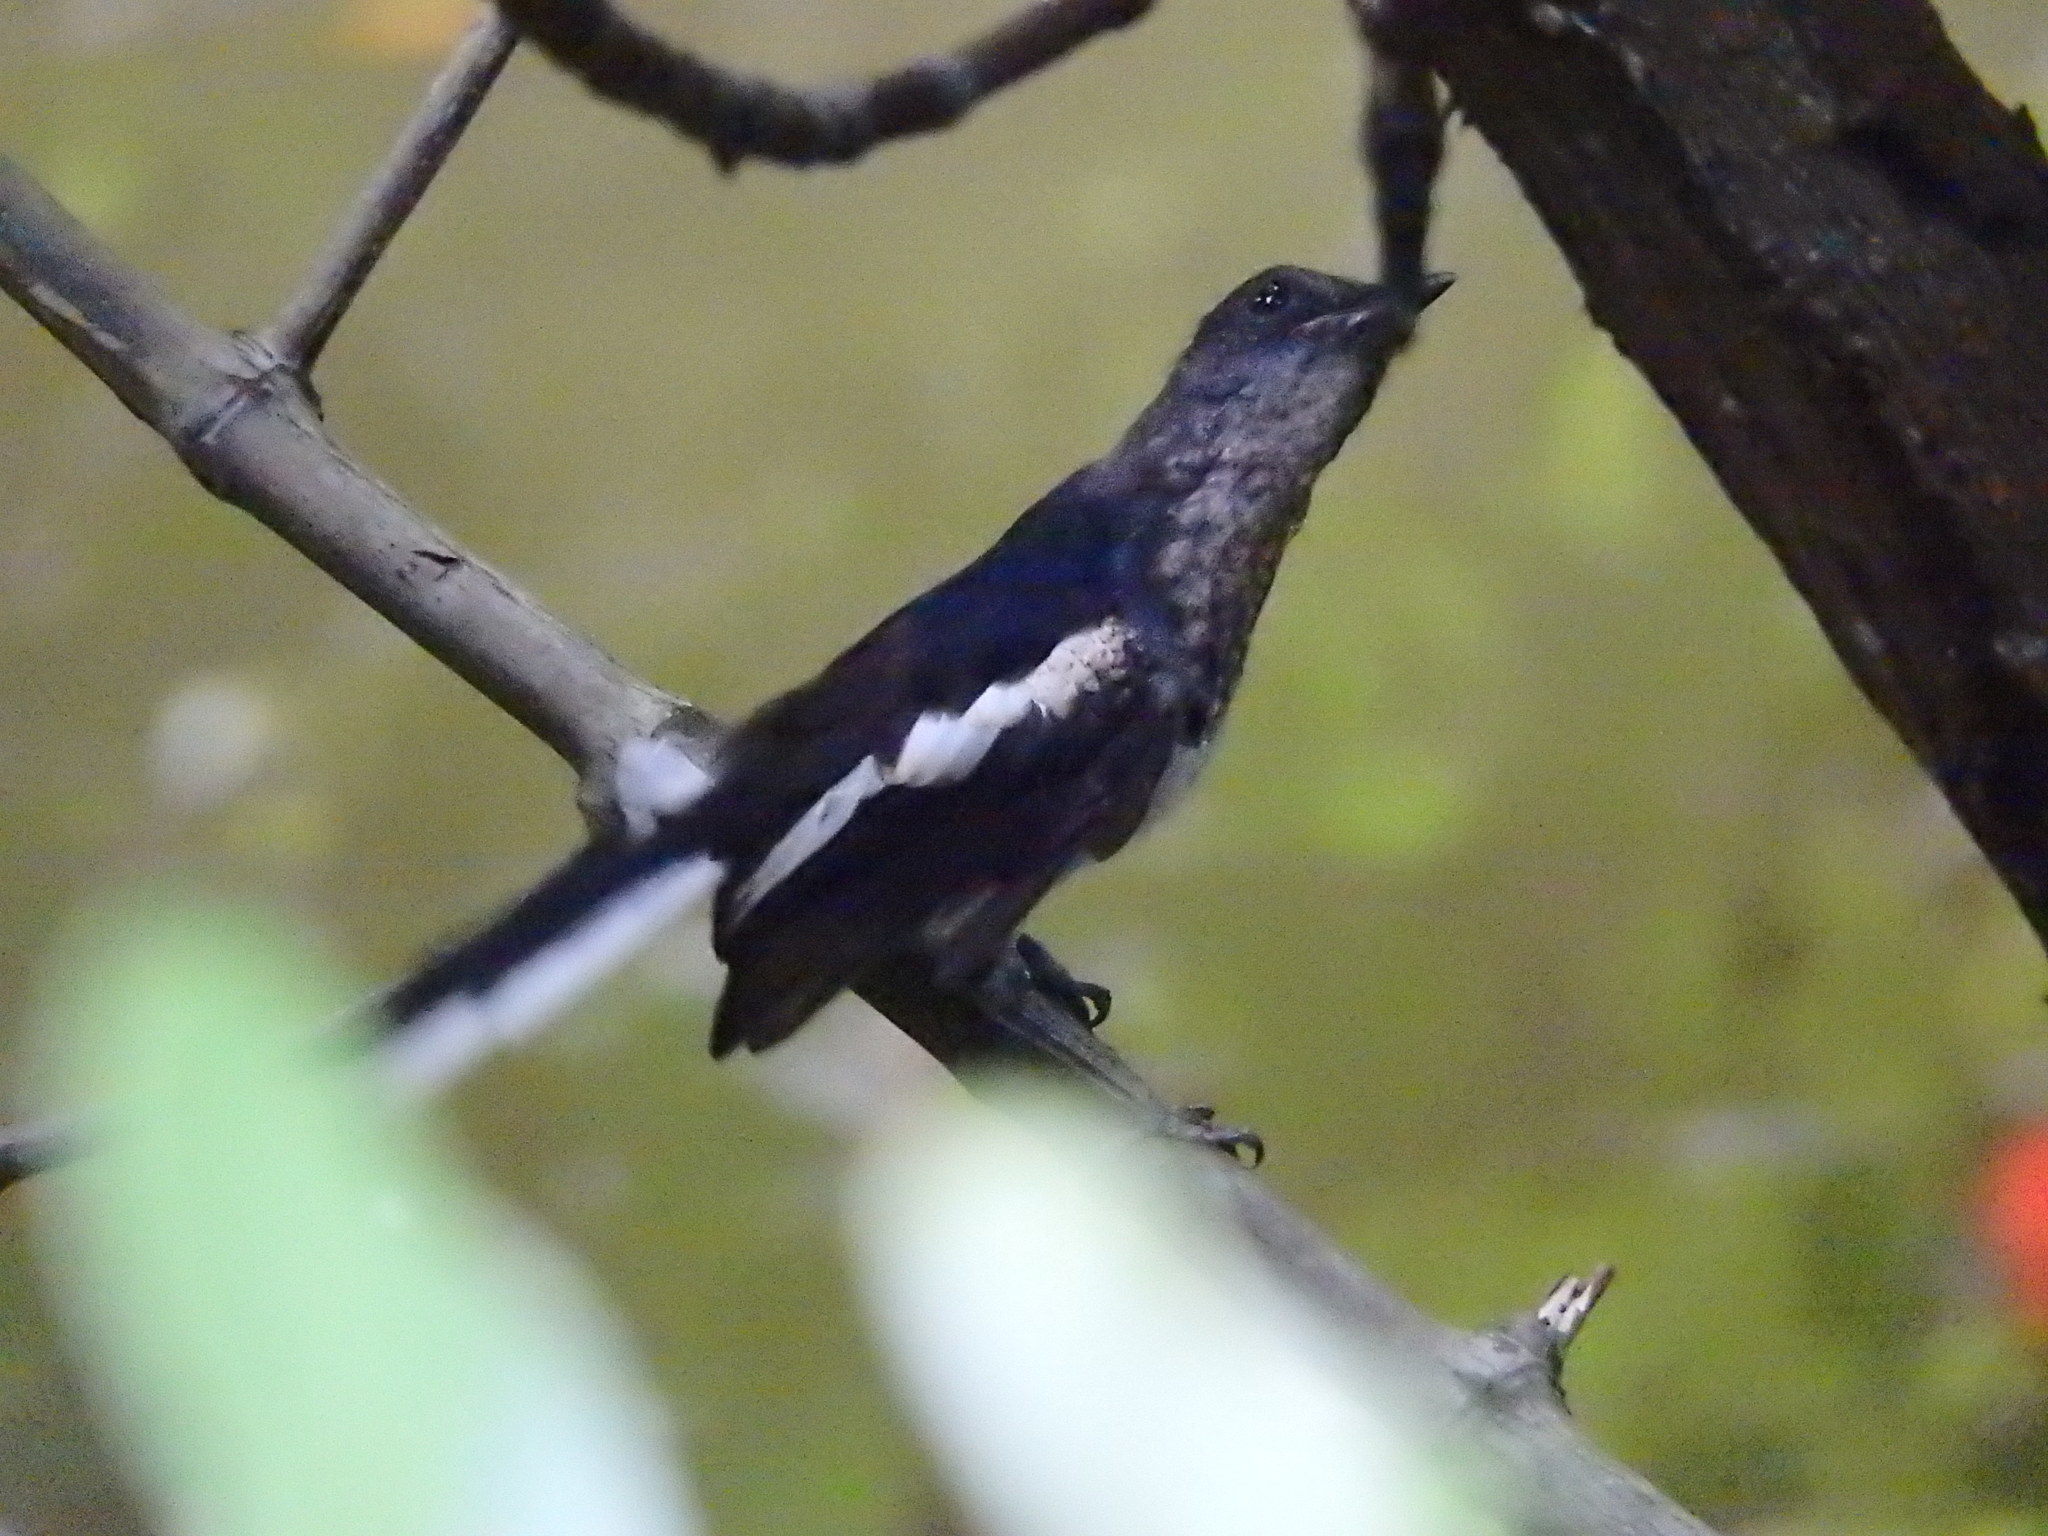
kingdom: Animalia
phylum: Chordata
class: Aves
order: Passeriformes
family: Muscicapidae
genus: Copsychus
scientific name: Copsychus saularis
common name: Oriental magpie-robin
